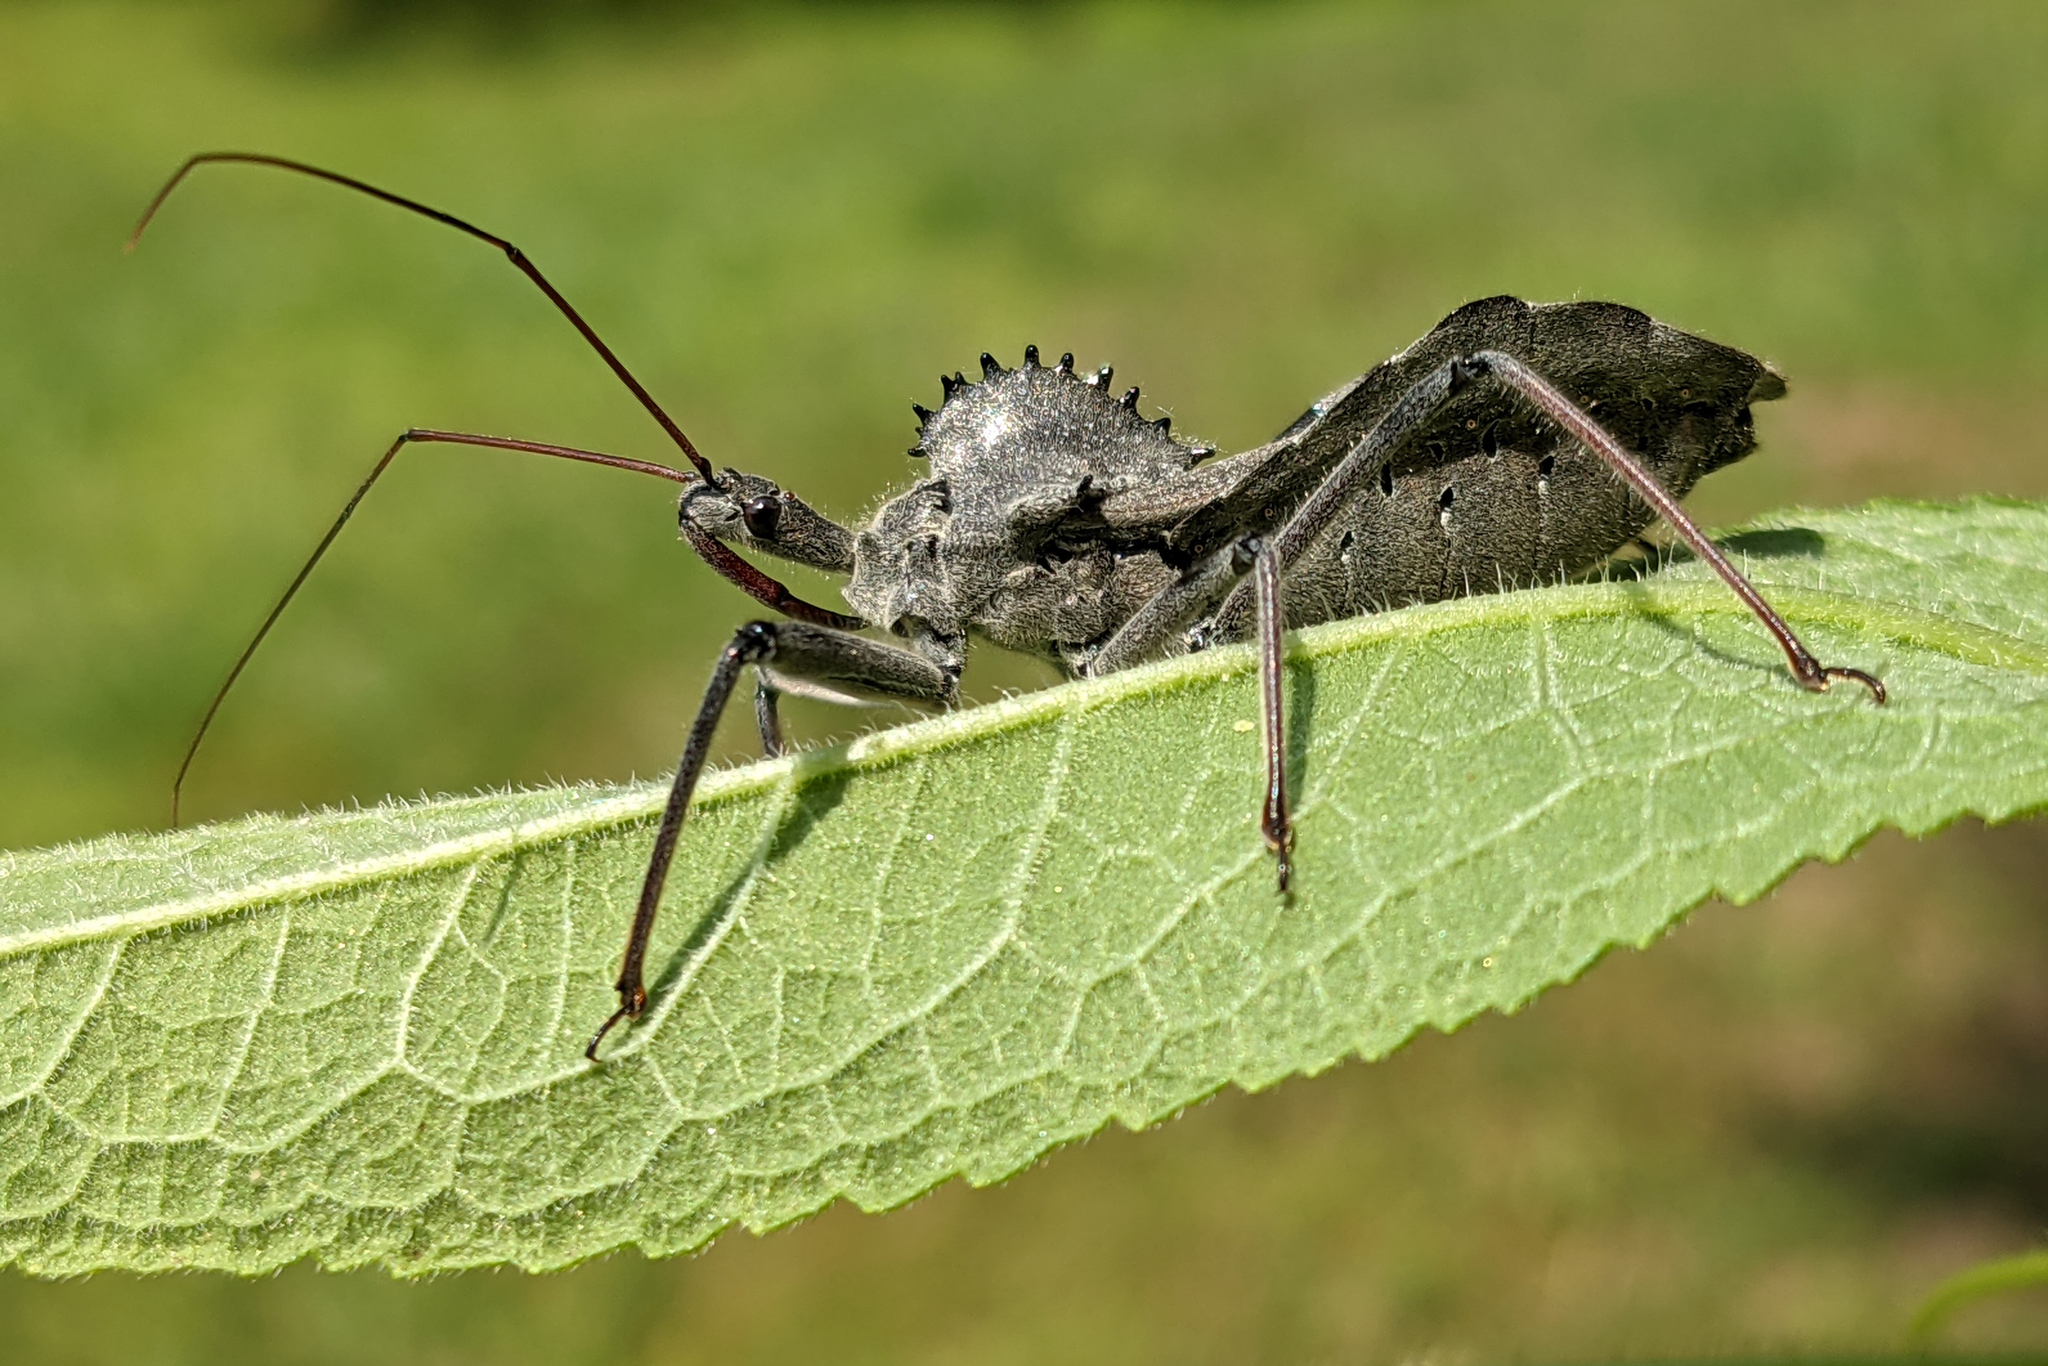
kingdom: Animalia
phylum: Arthropoda
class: Insecta
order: Hemiptera
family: Reduviidae
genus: Arilus
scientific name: Arilus cristatus
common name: North american wheel bug
